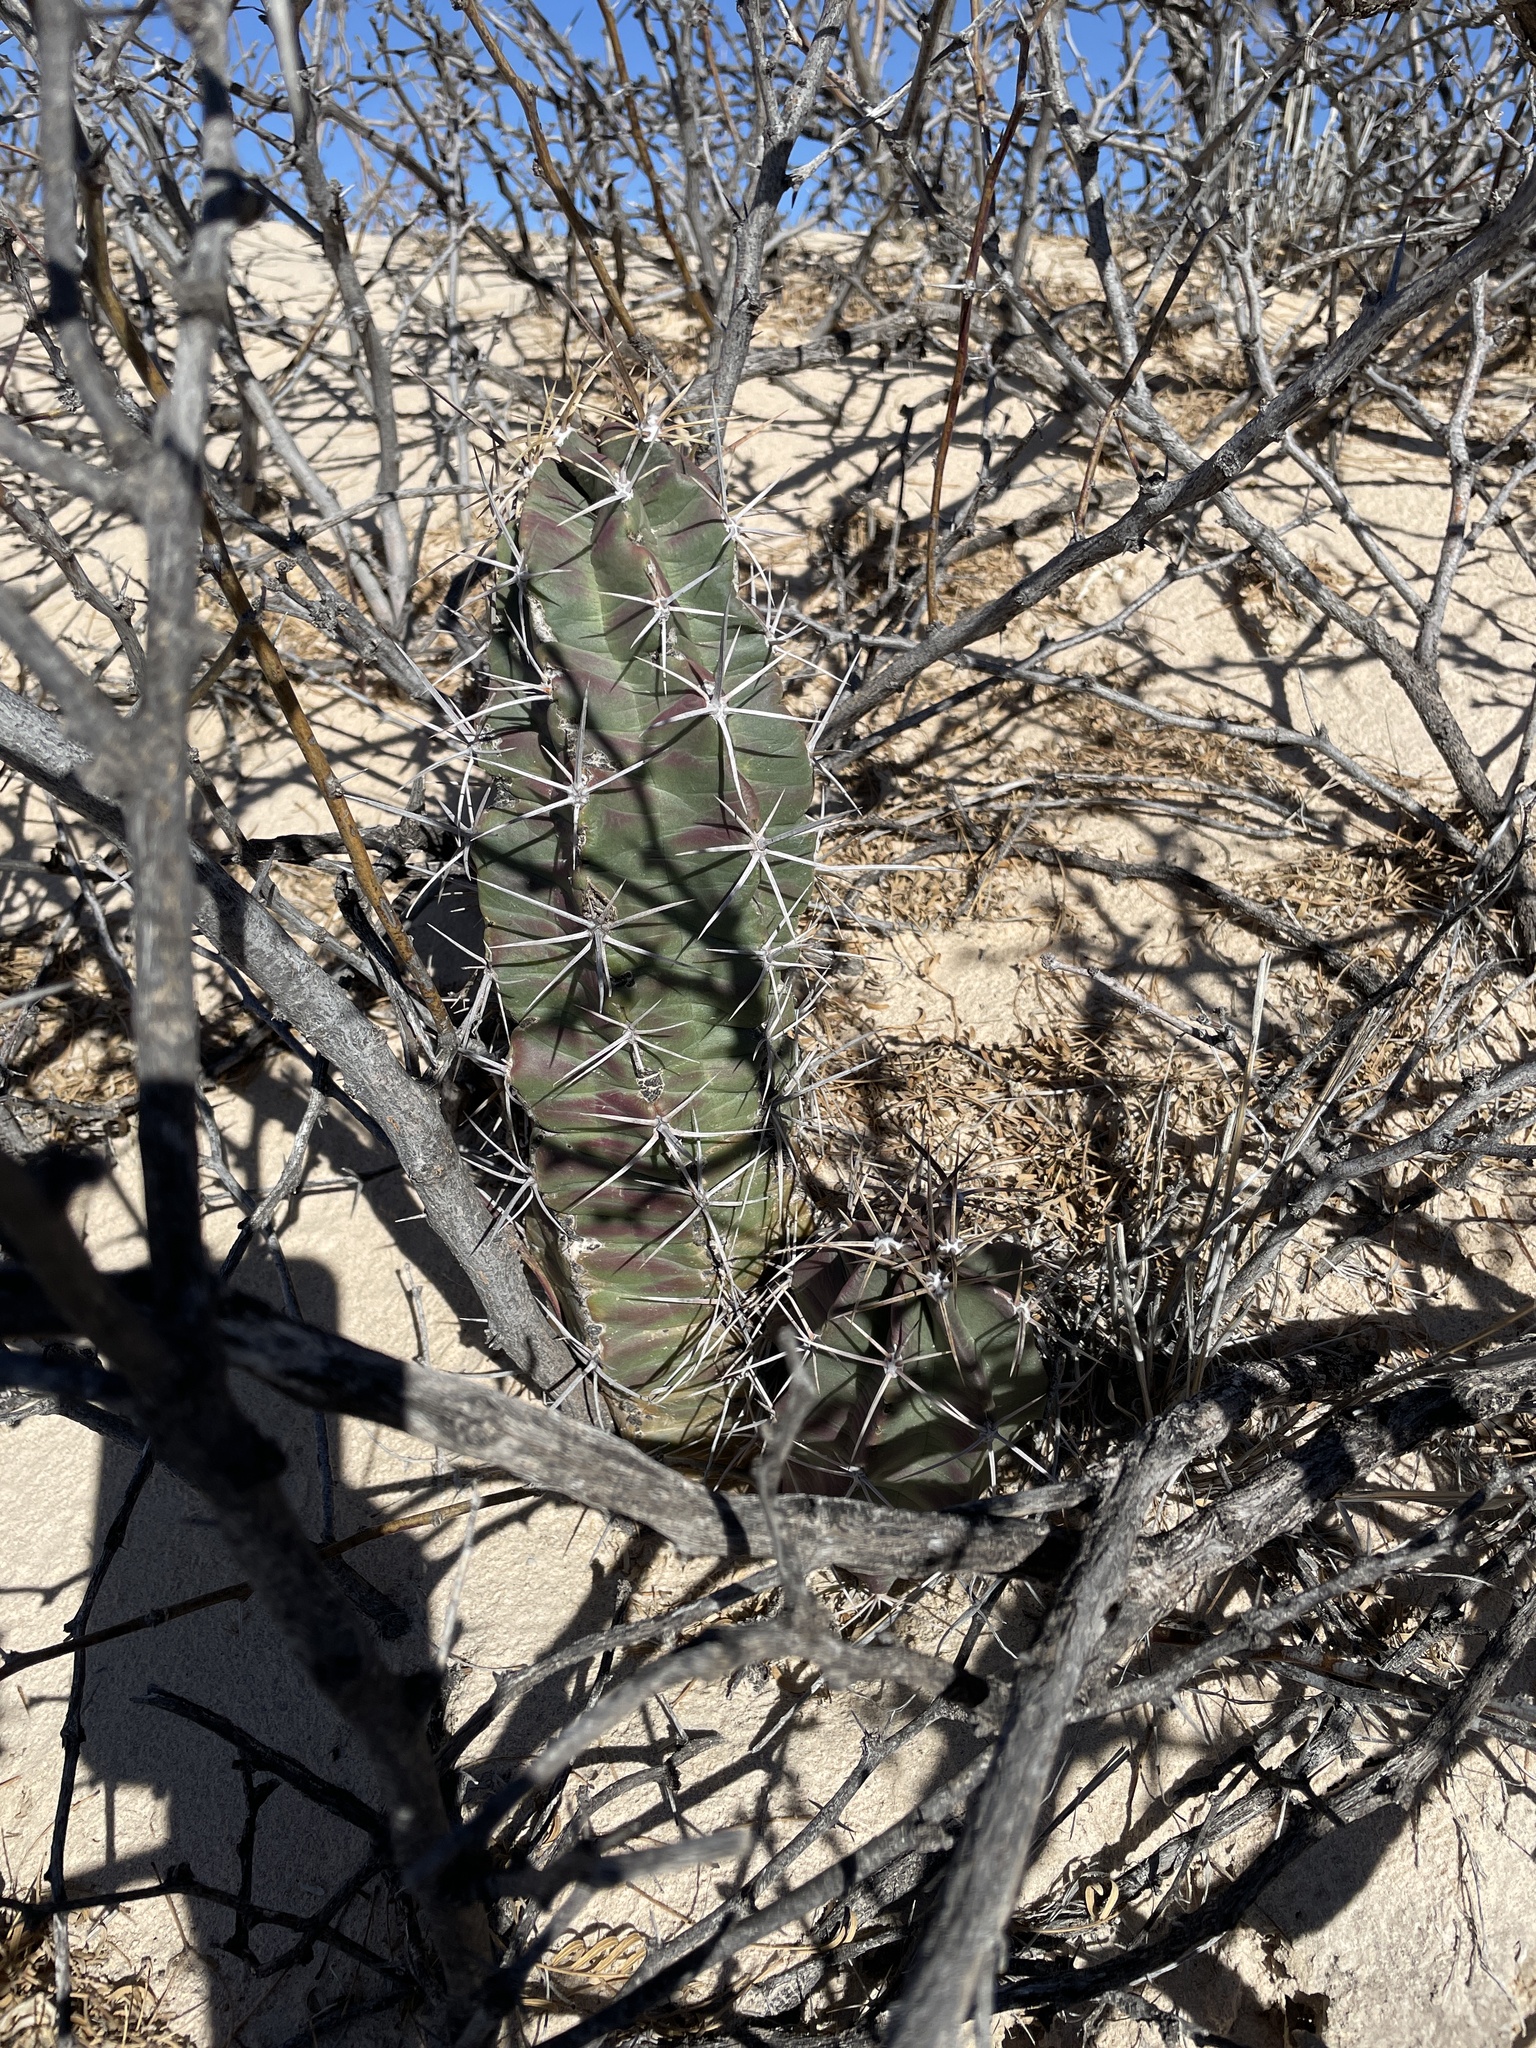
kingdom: Plantae
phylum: Tracheophyta
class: Magnoliopsida
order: Caryophyllales
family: Cactaceae
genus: Echinocereus
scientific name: Echinocereus triglochidiatus
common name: Claretcup hedgehog
